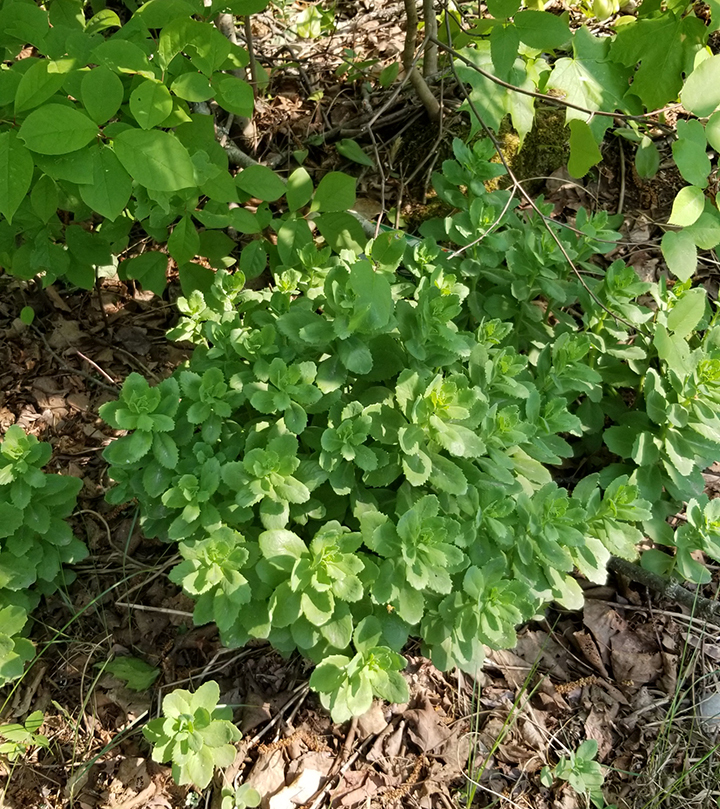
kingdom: Plantae
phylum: Tracheophyta
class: Magnoliopsida
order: Saxifragales
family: Crassulaceae
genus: Hylotelephium
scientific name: Hylotelephium telephium
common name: Live-forever
